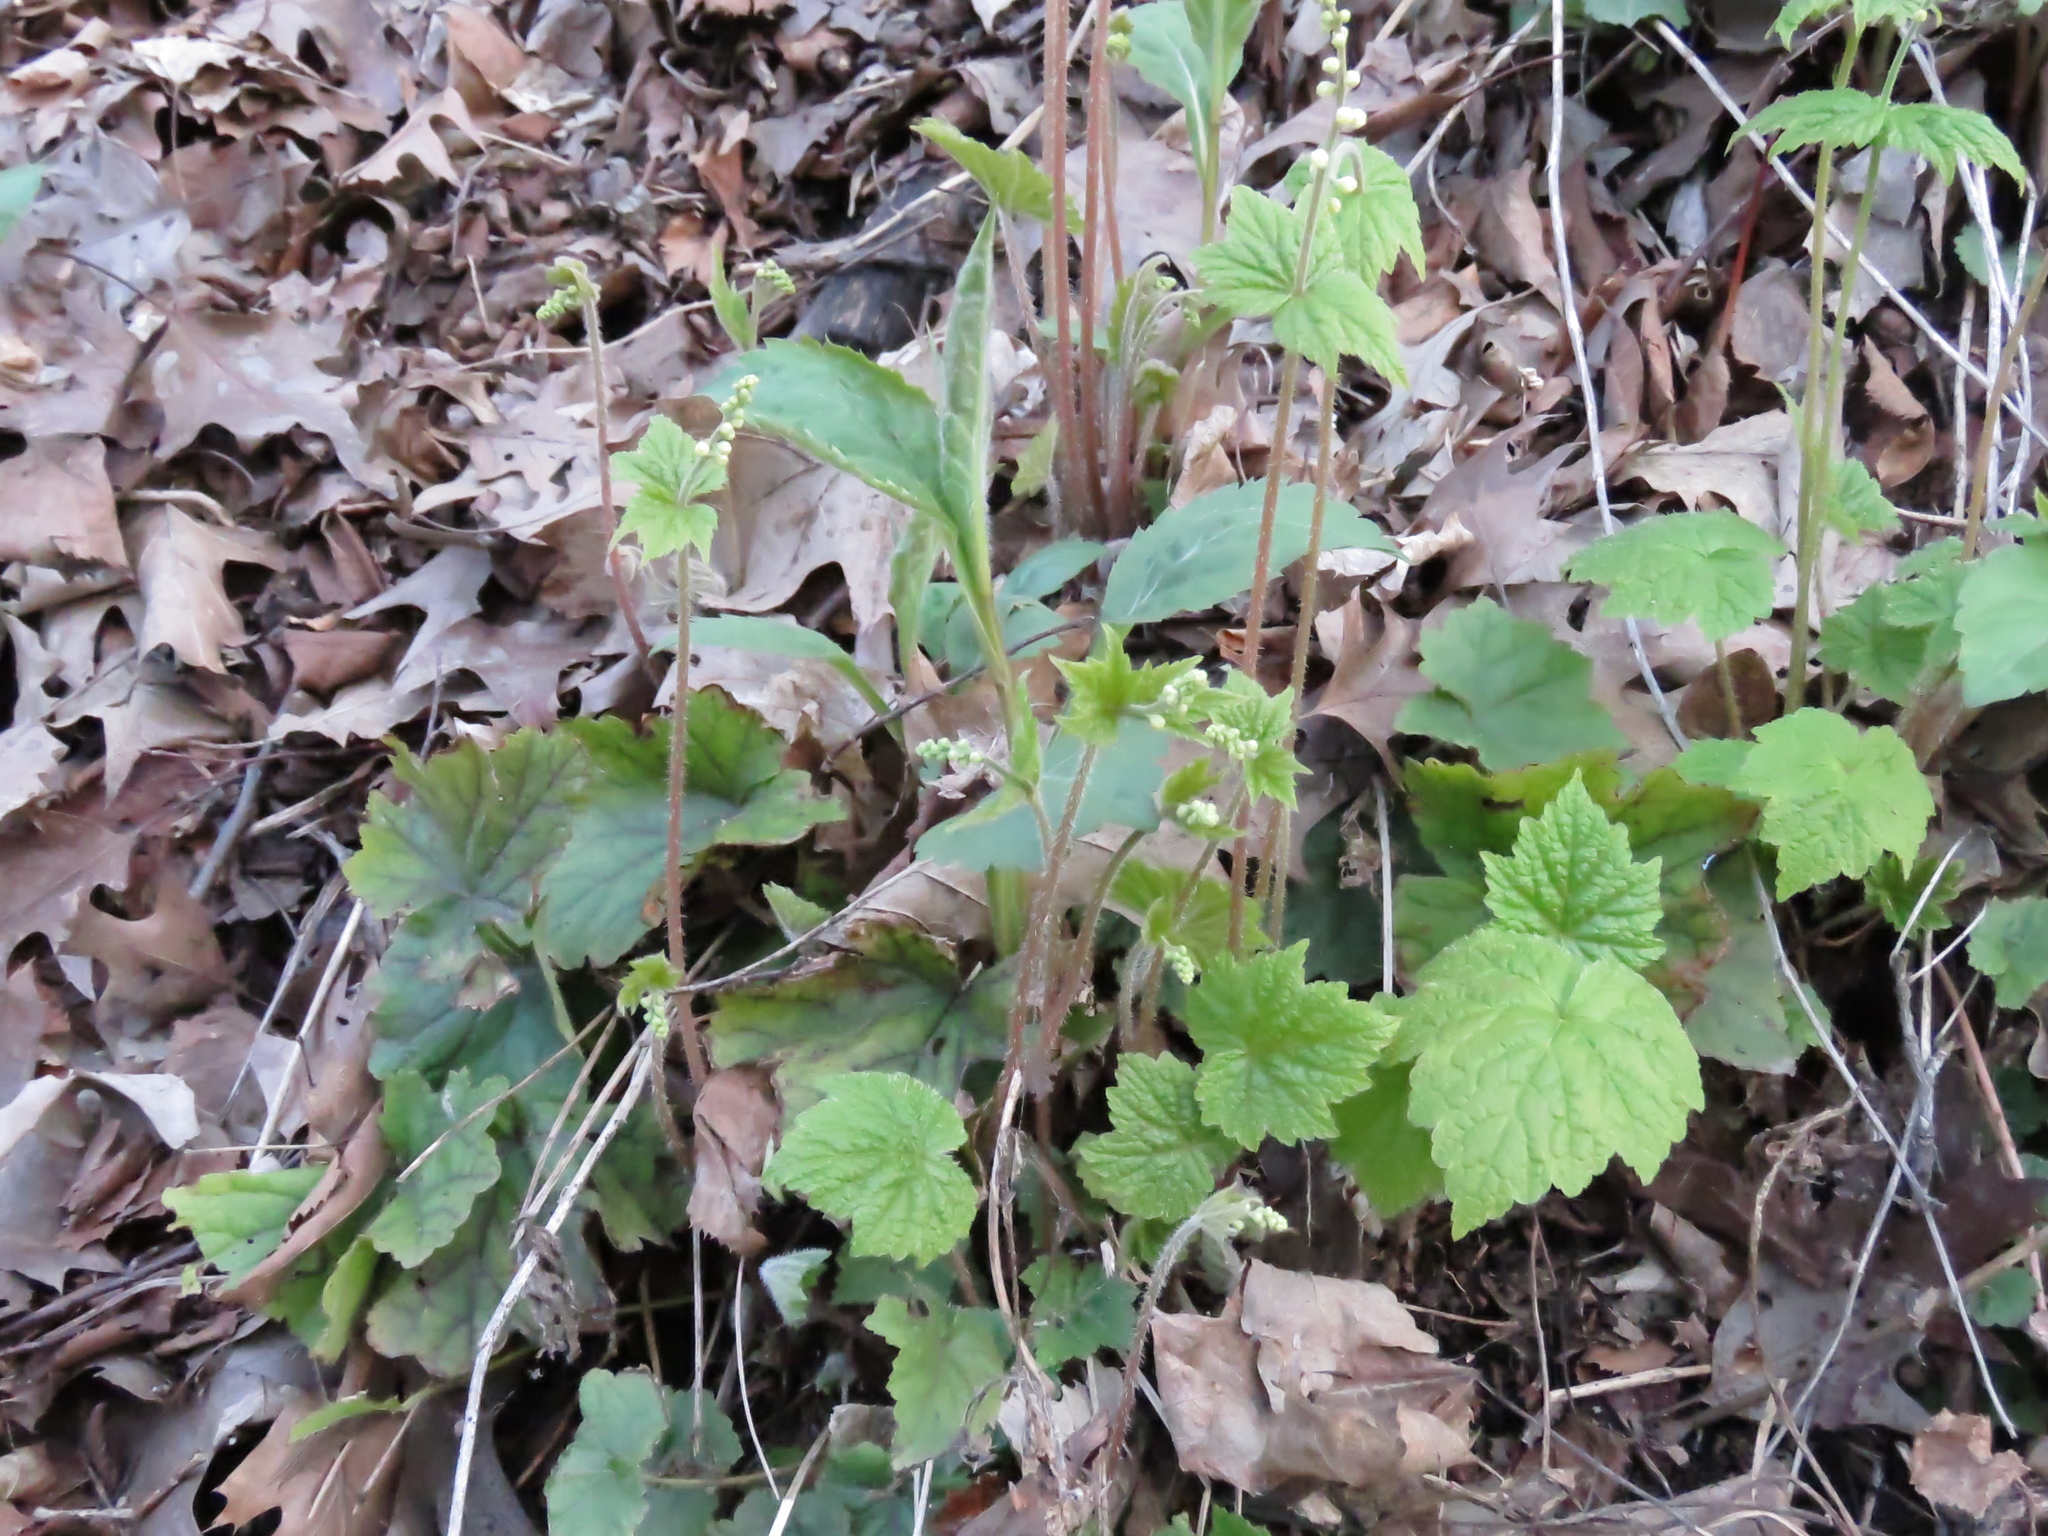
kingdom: Plantae
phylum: Tracheophyta
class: Magnoliopsida
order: Saxifragales
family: Saxifragaceae
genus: Mitella
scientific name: Mitella diphylla
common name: Coolwort
